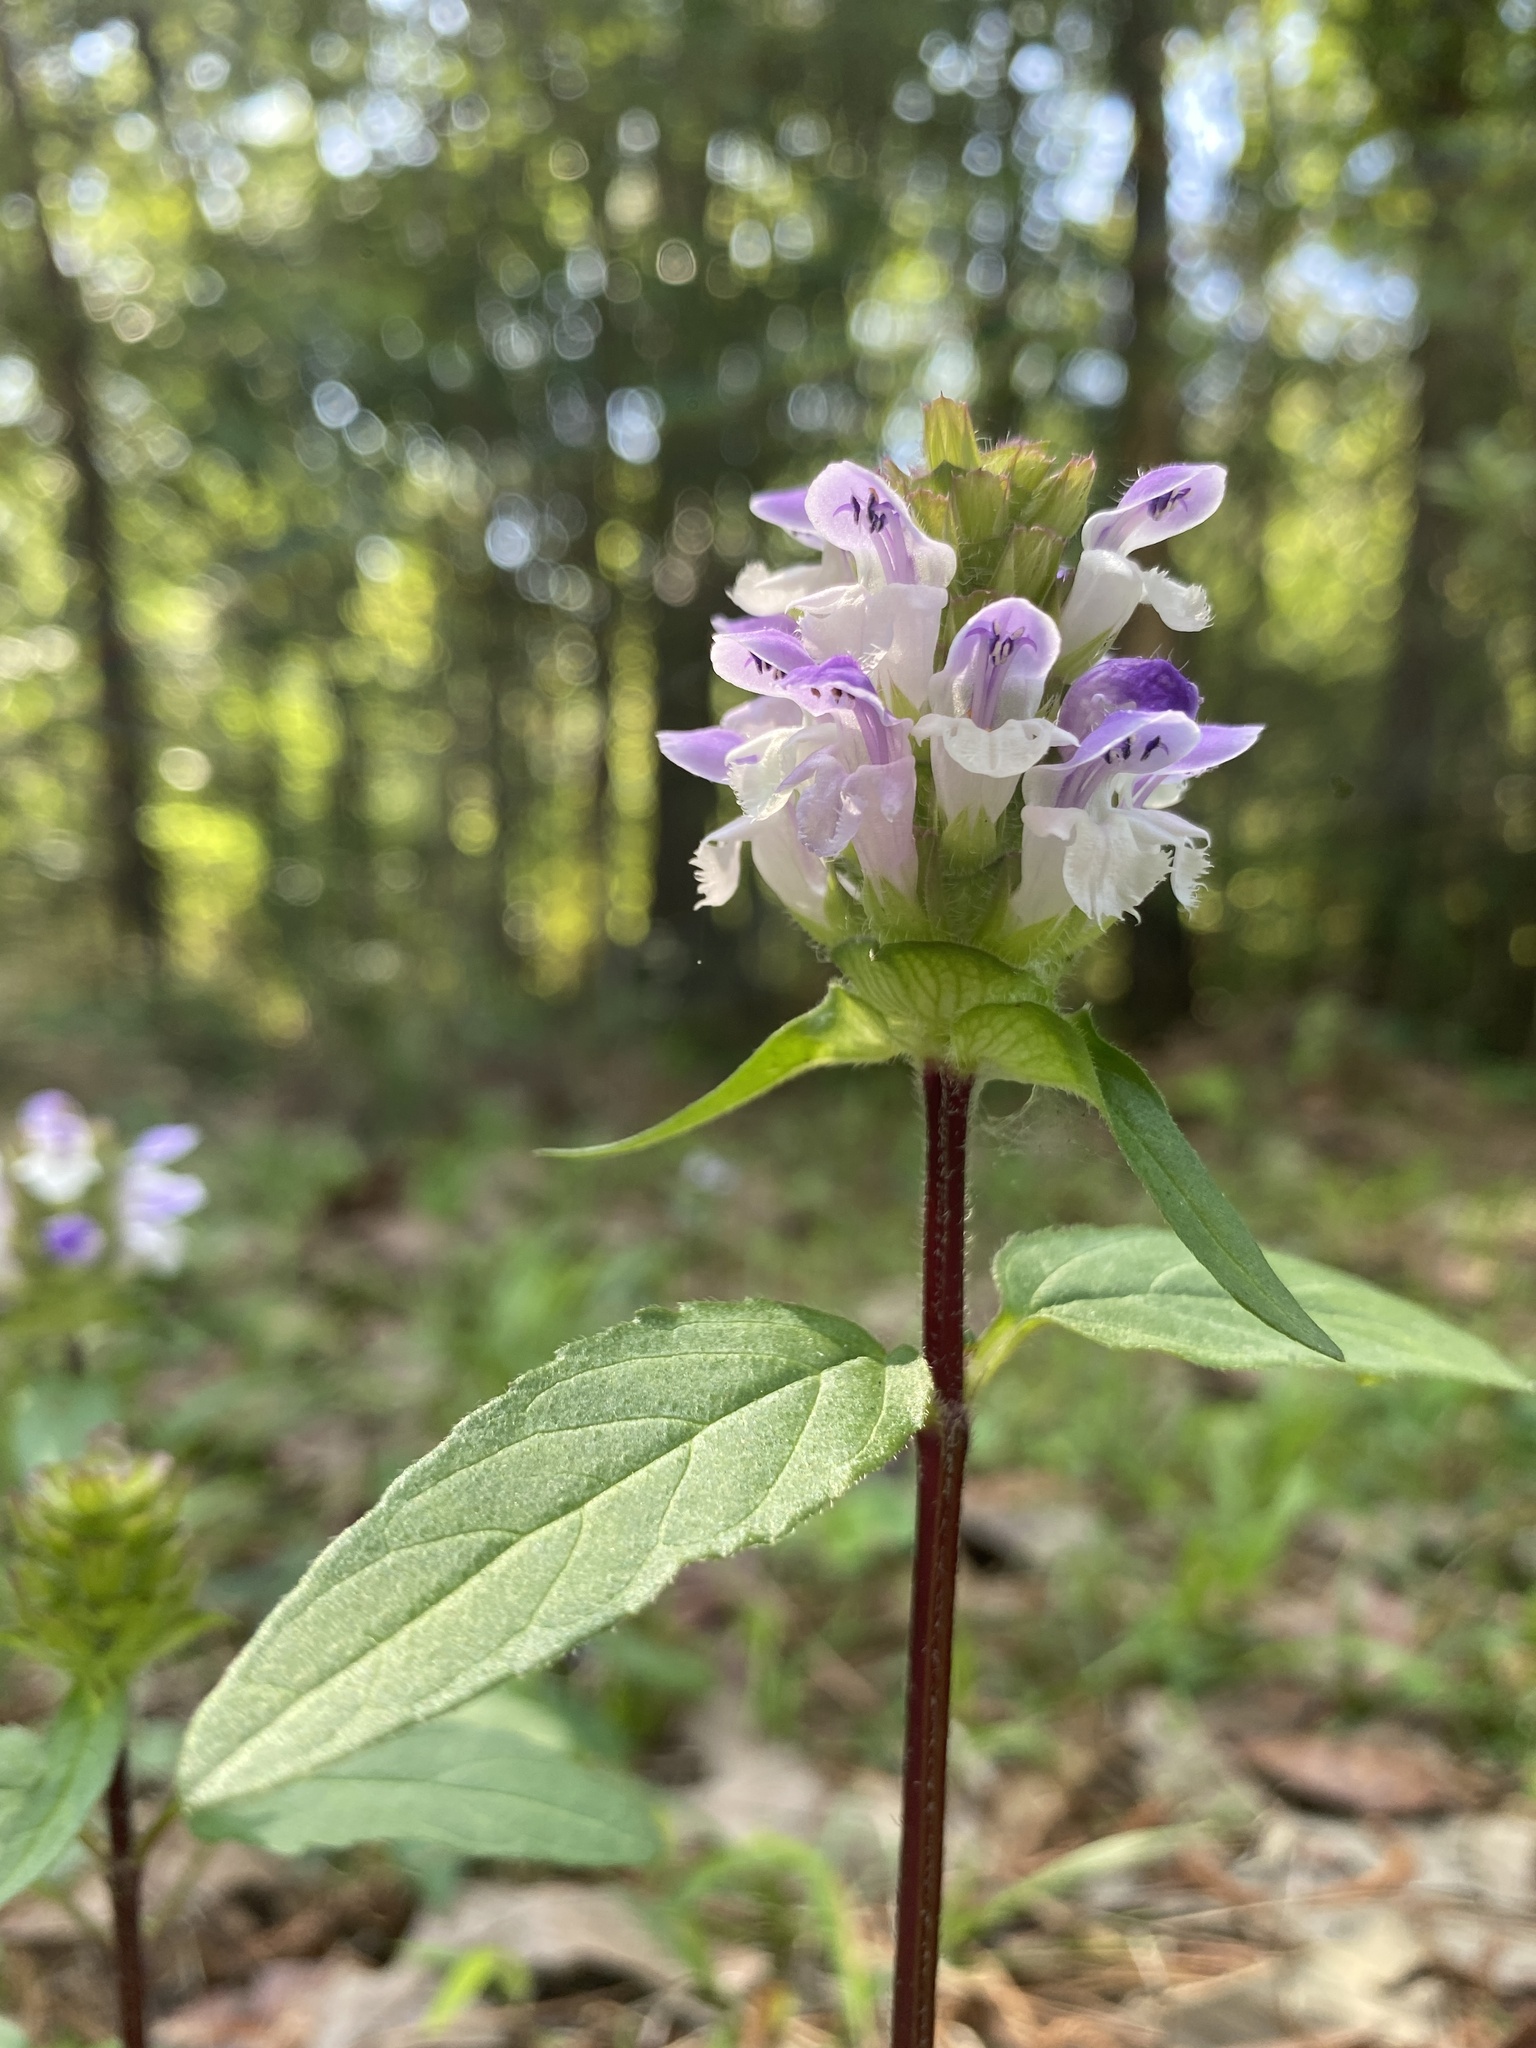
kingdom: Plantae
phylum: Tracheophyta
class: Magnoliopsida
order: Lamiales
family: Lamiaceae
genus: Prunella
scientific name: Prunella vulgaris
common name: Heal-all
